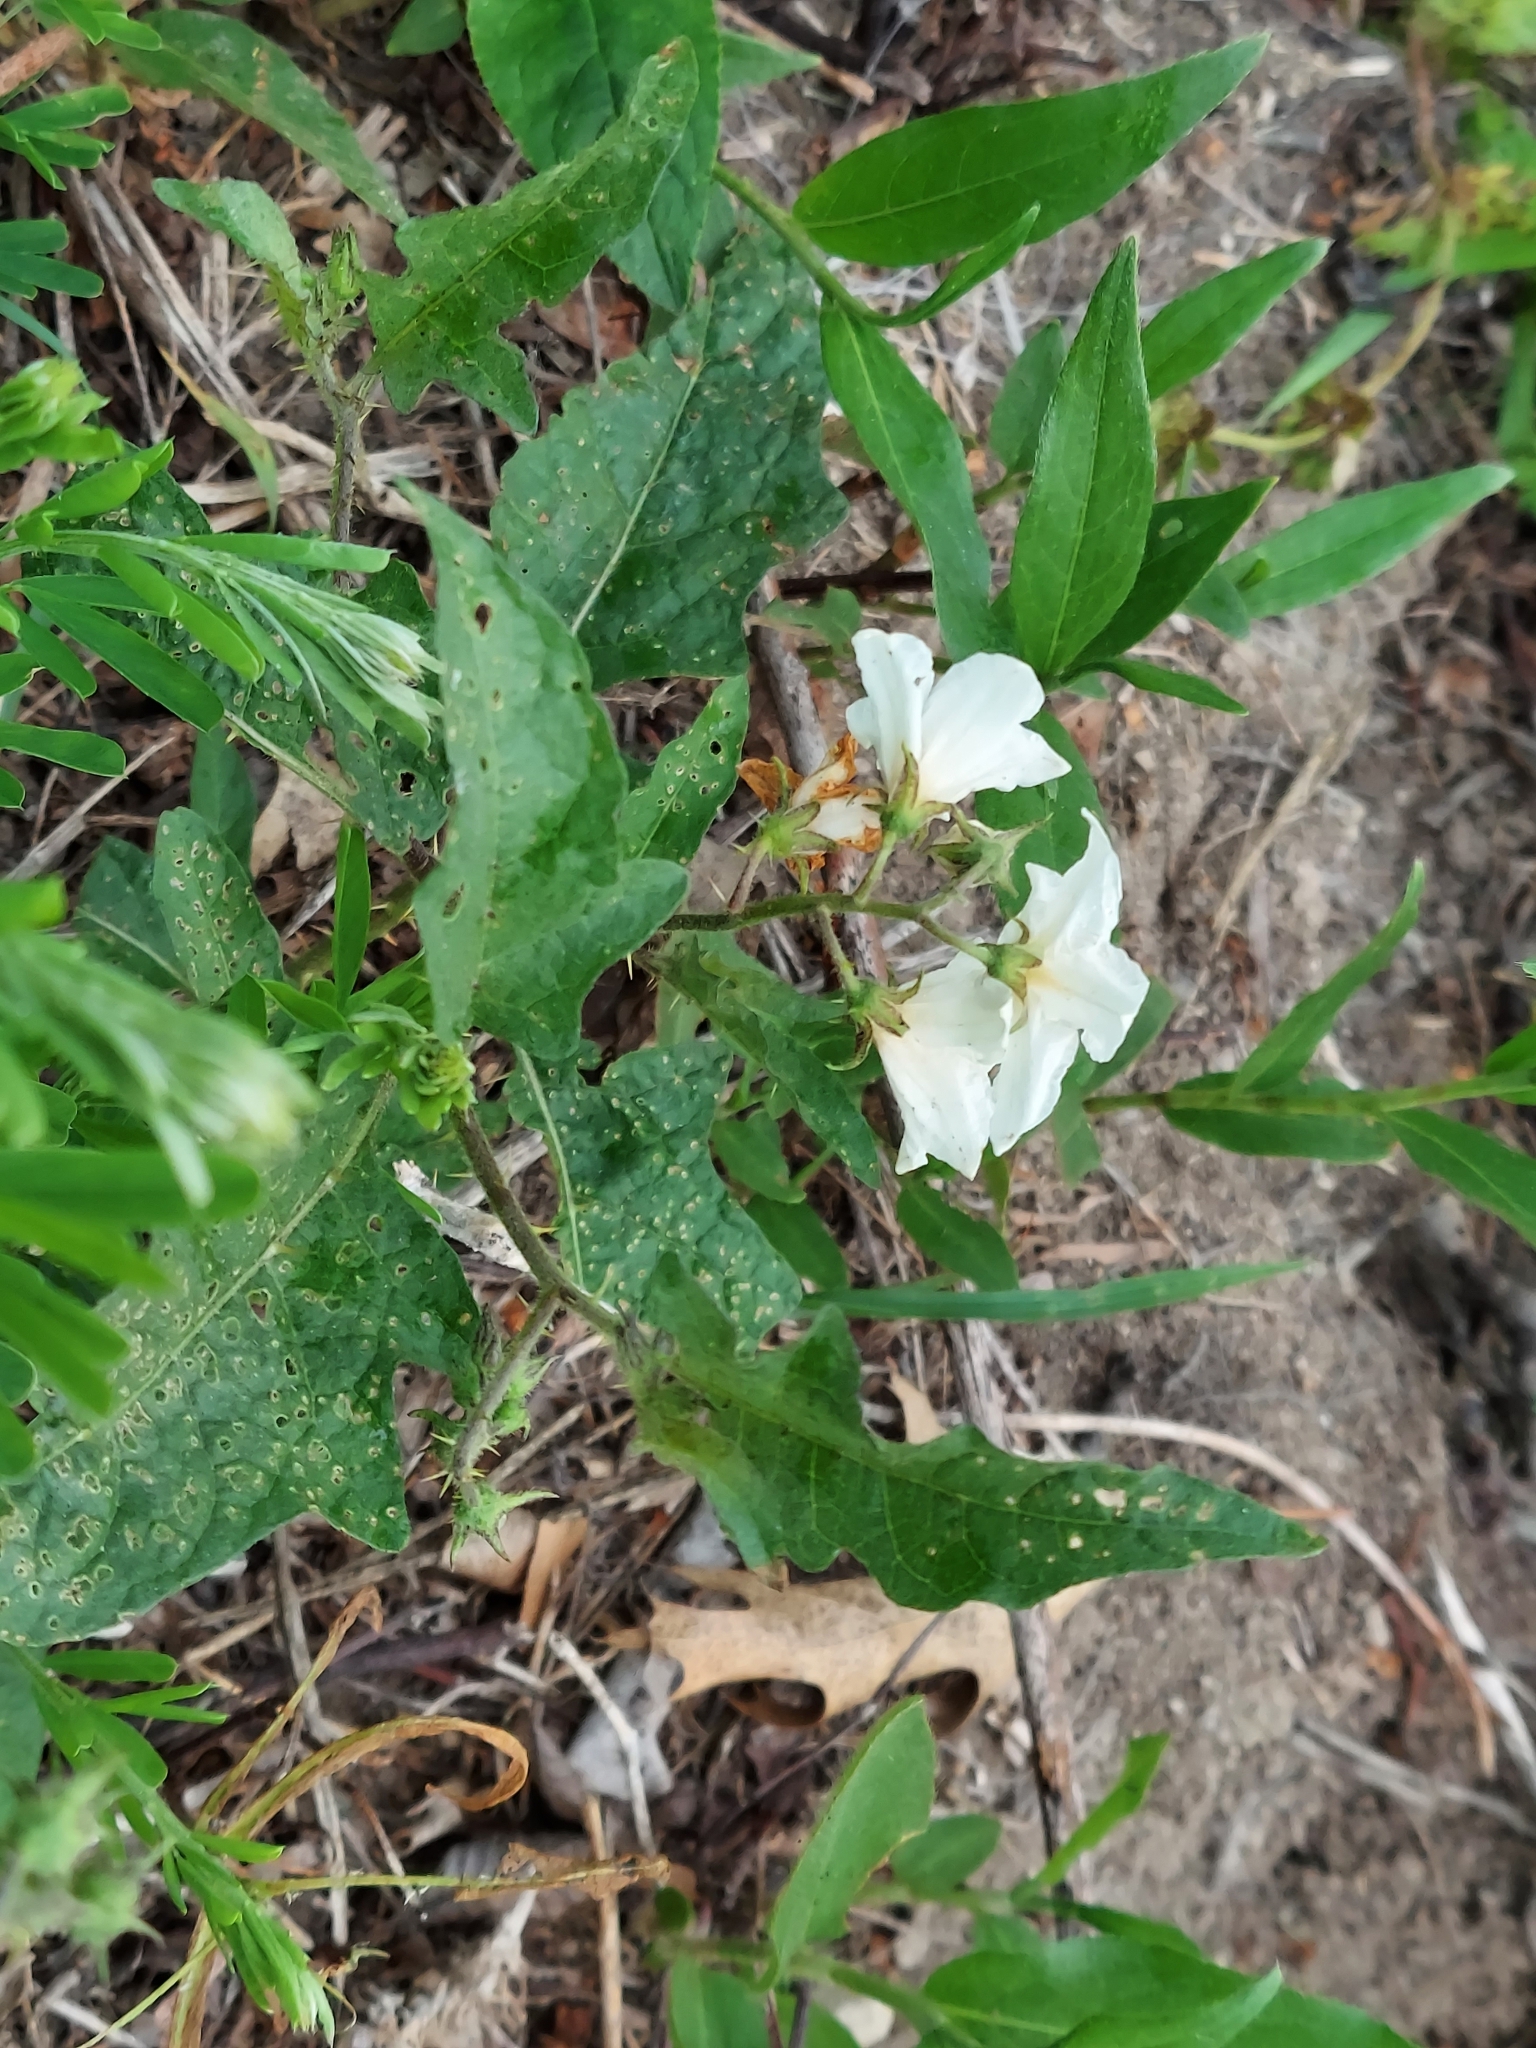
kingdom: Plantae
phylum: Tracheophyta
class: Magnoliopsida
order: Solanales
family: Solanaceae
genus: Solanum
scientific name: Solanum carolinense
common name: Horse-nettle
